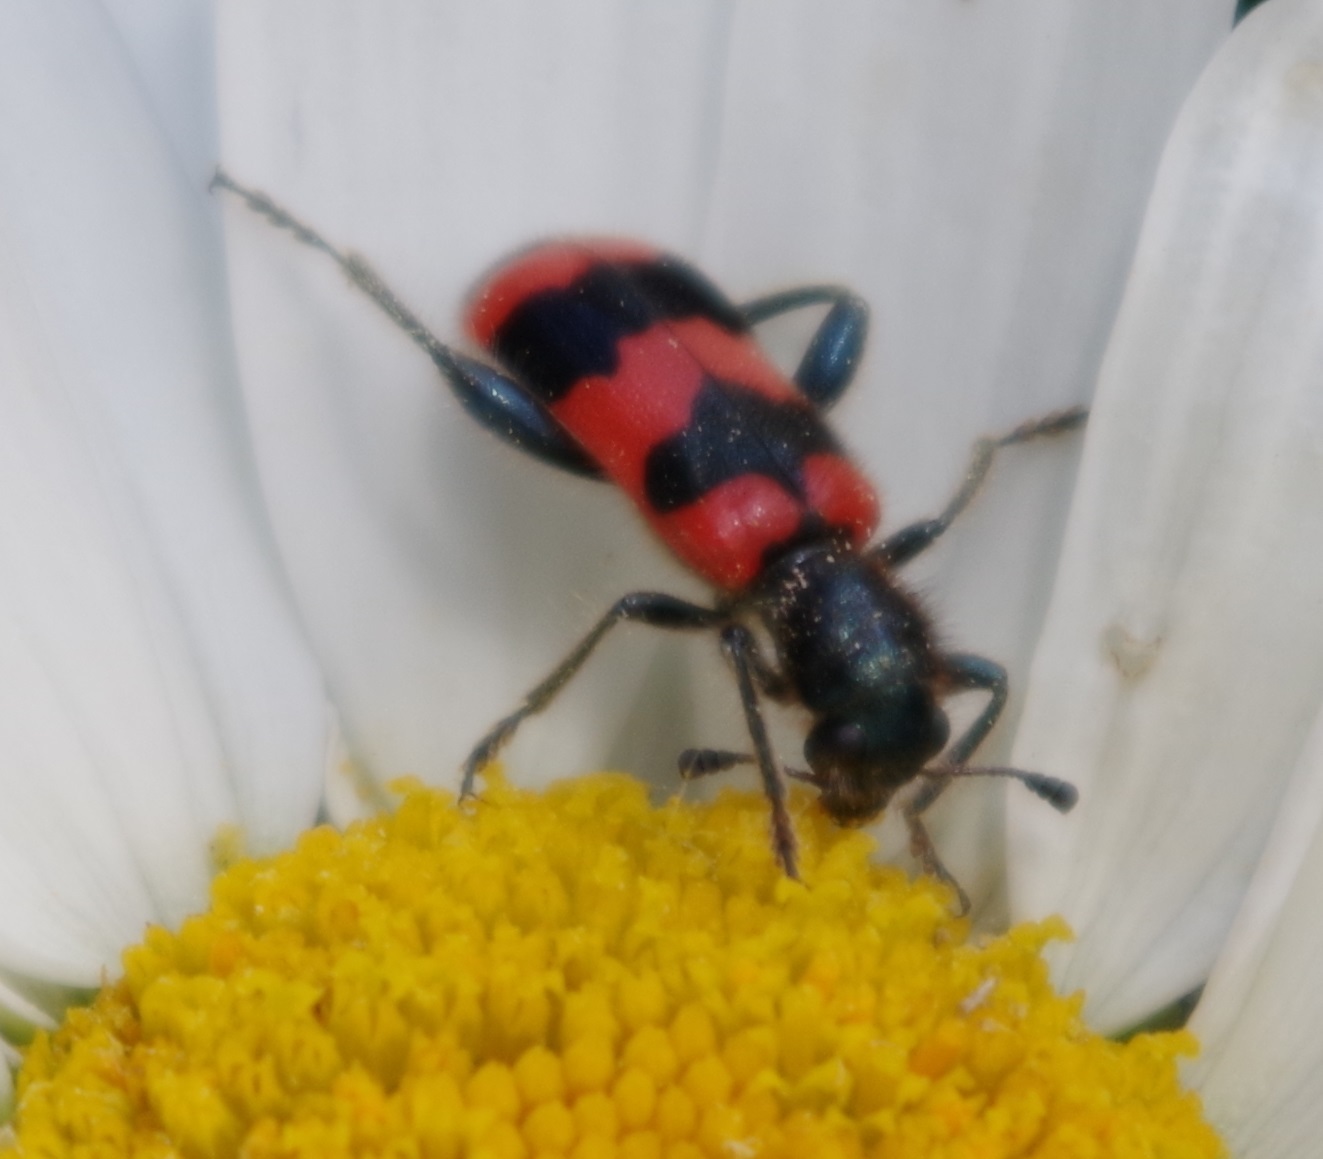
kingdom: Animalia
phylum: Arthropoda
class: Insecta
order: Coleoptera
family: Cleridae
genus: Trichodes
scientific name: Trichodes apiarius
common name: Bee-eating beetle
